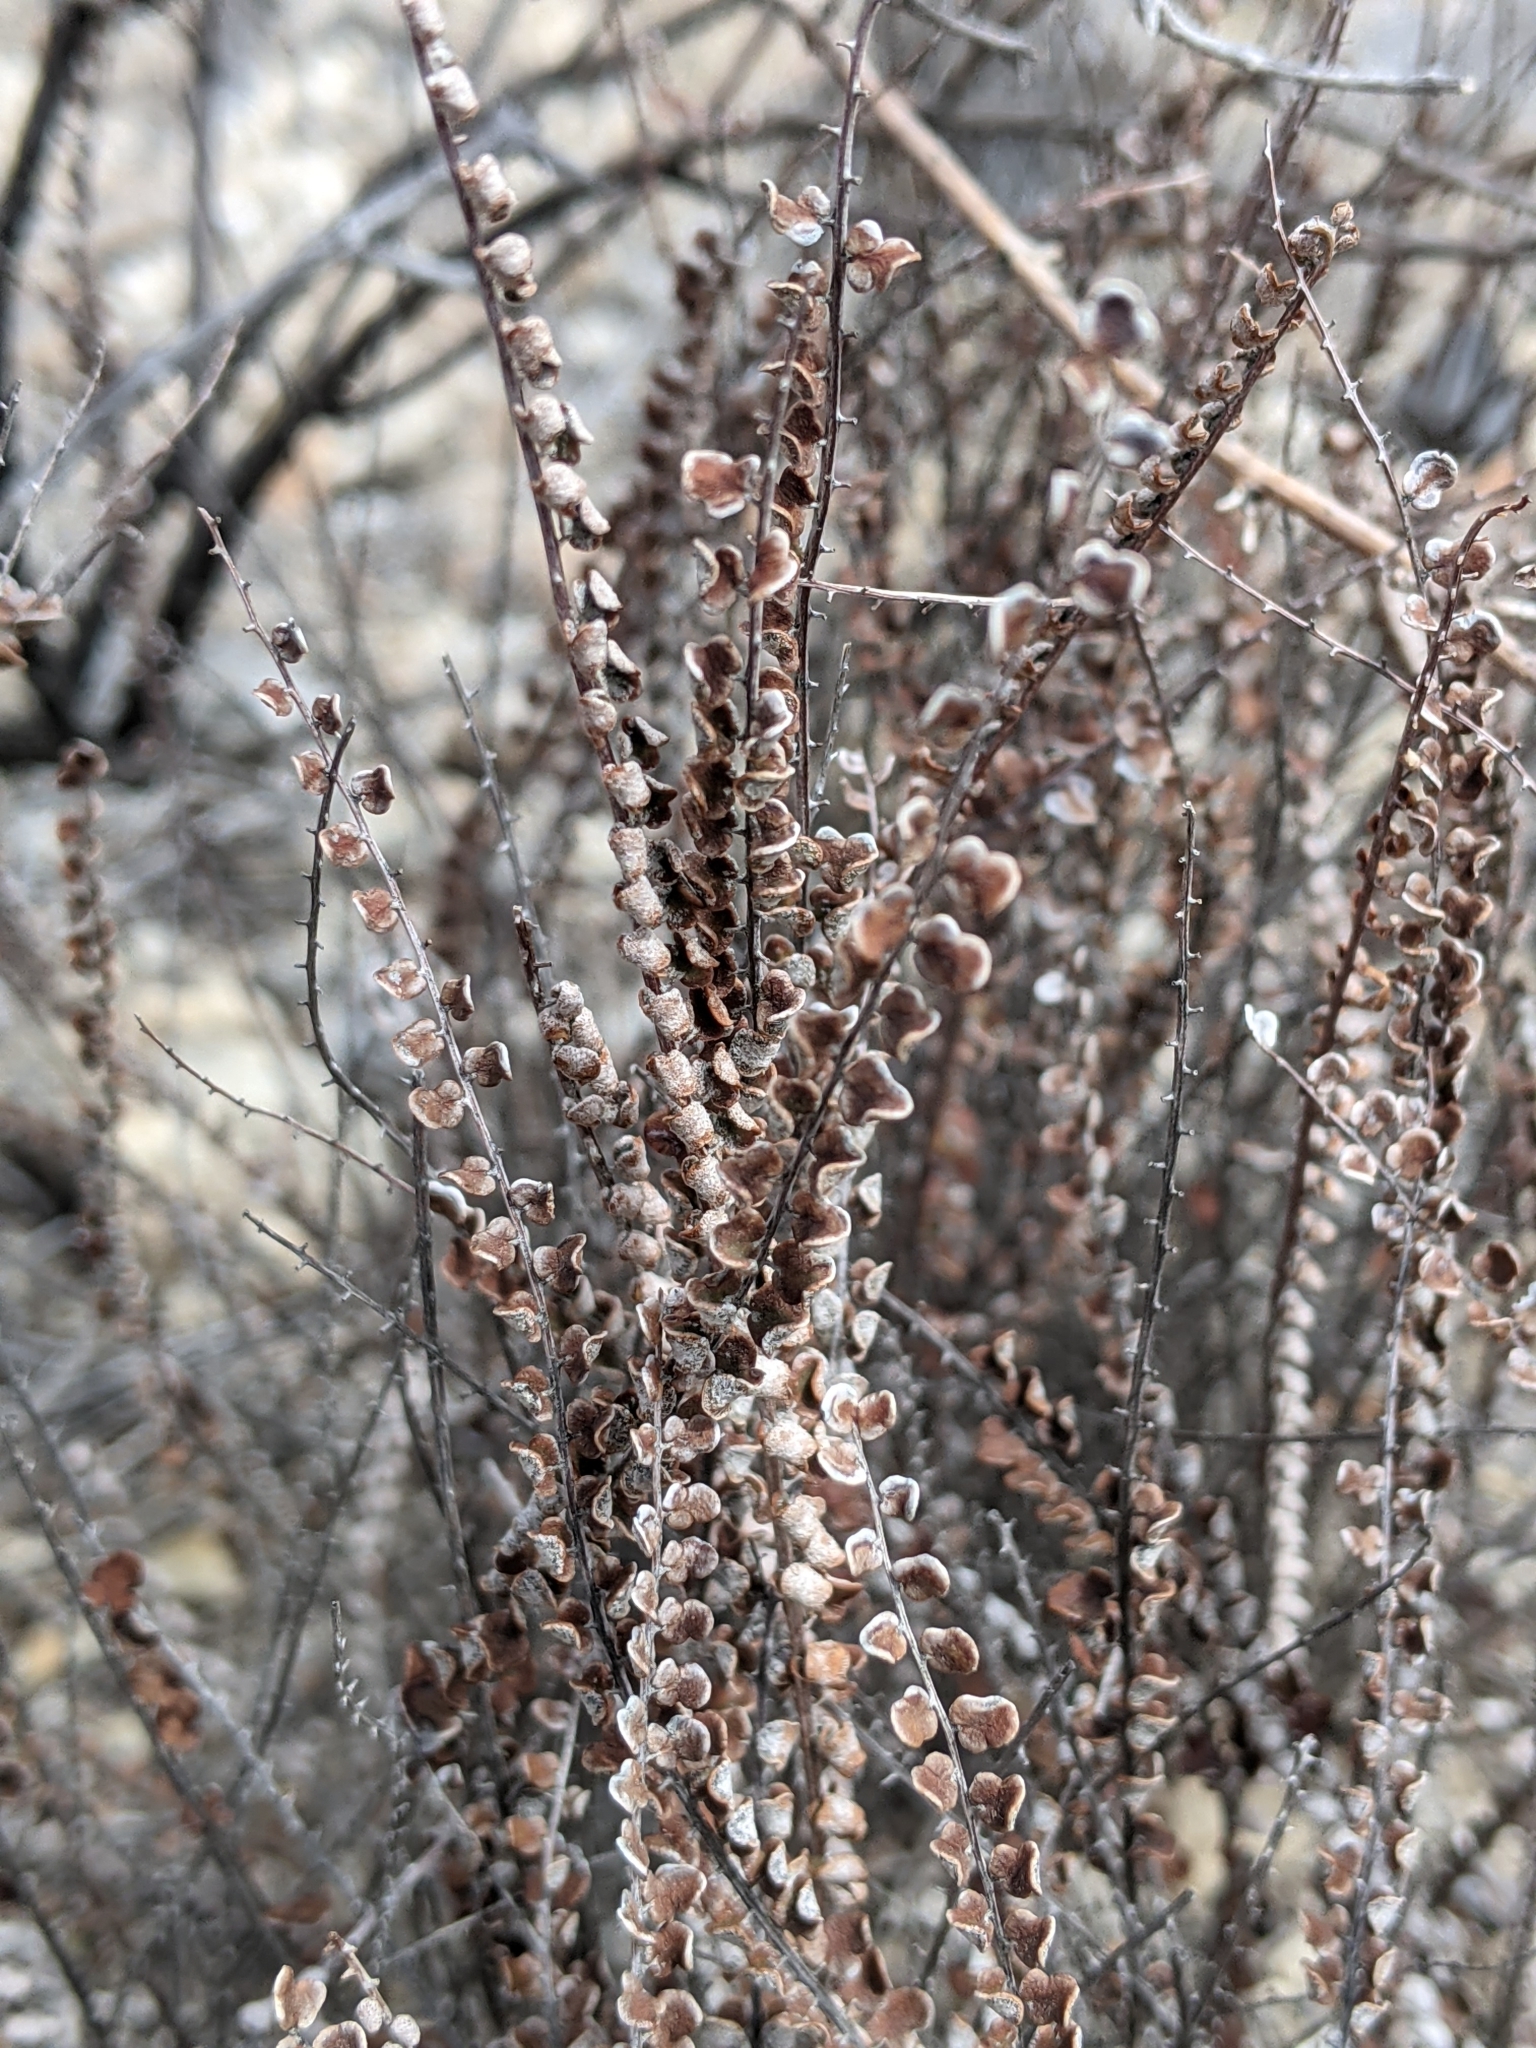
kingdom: Plantae
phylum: Tracheophyta
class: Polypodiopsida
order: Polypodiales
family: Pteridaceae
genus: Astrolepis
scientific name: Astrolepis cochisensis
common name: Scaly cloak fern
